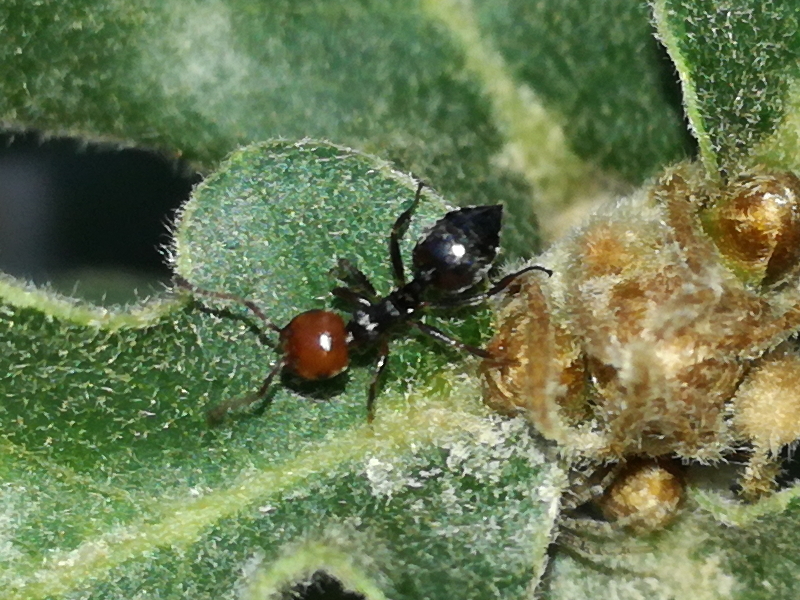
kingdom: Animalia
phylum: Arthropoda
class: Insecta
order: Hymenoptera
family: Formicidae
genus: Crematogaster
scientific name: Crematogaster scutellaris
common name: Fourmi du liège
